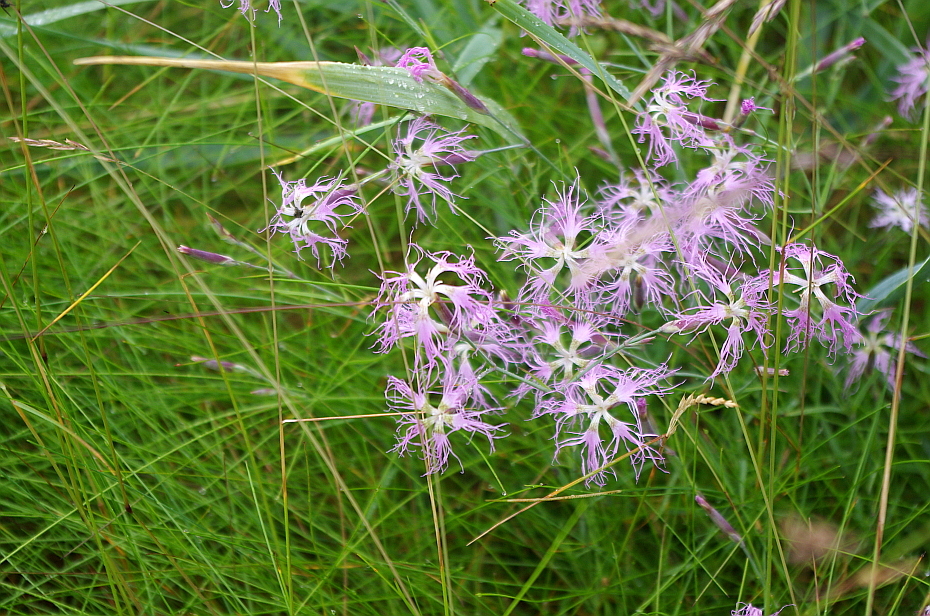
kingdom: Plantae
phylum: Tracheophyta
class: Magnoliopsida
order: Caryophyllales
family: Caryophyllaceae
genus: Dianthus
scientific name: Dianthus superbus
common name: Fringed pink
